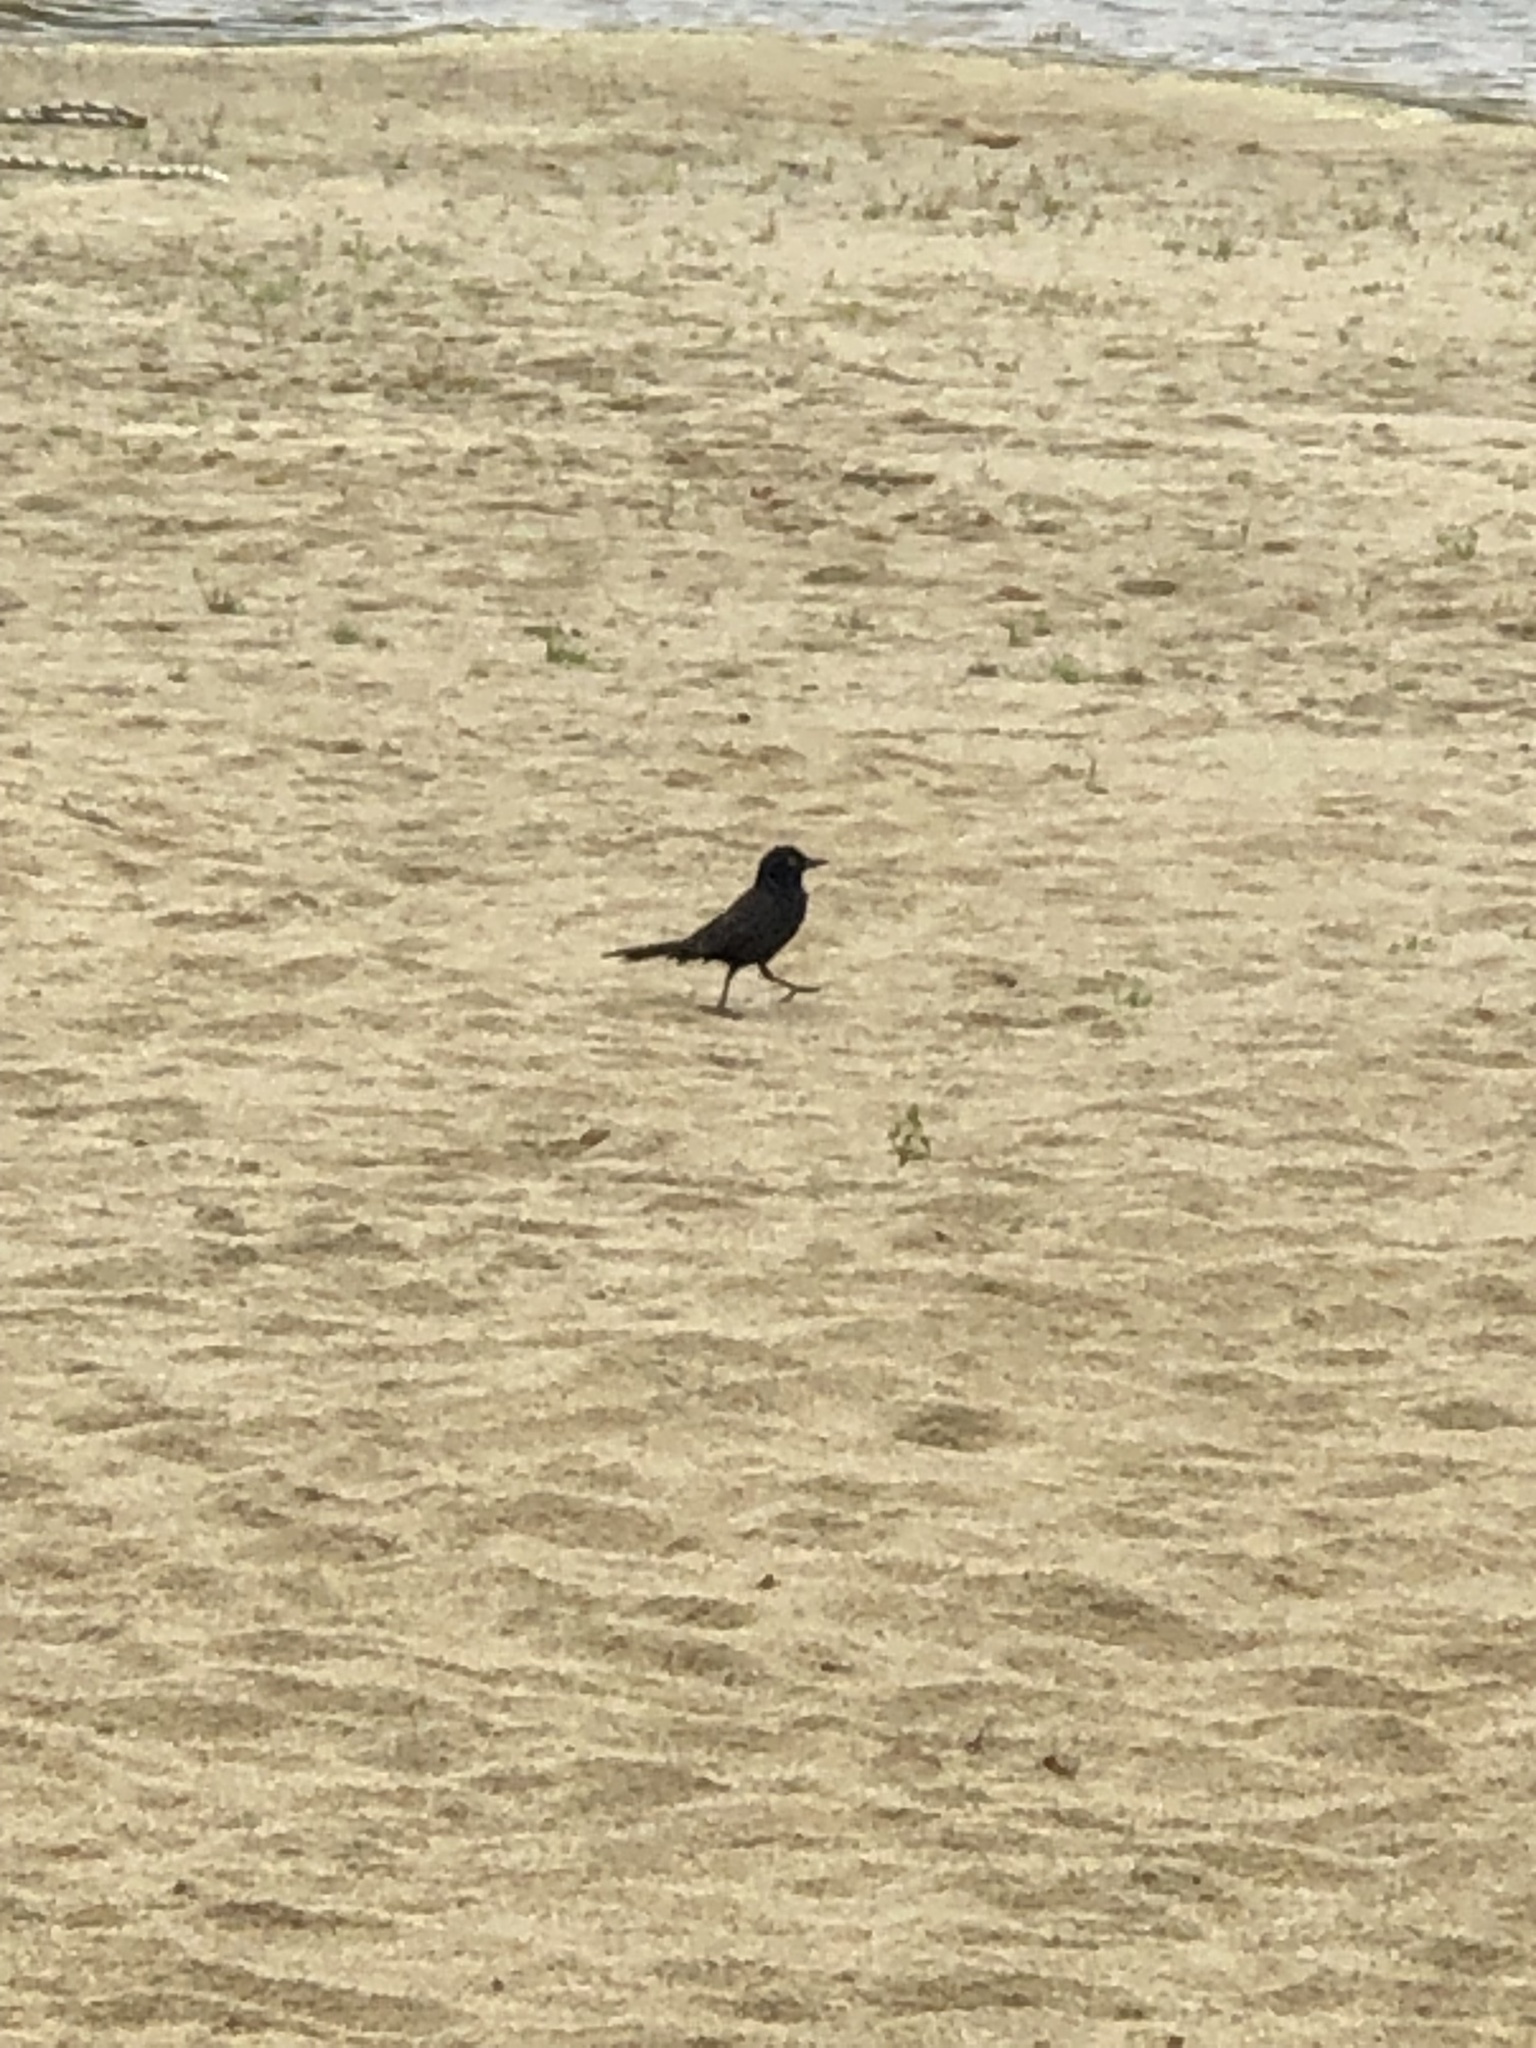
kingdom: Animalia
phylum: Chordata
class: Aves
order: Passeriformes
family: Icteridae
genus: Quiscalus
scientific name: Quiscalus quiscula
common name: Common grackle
